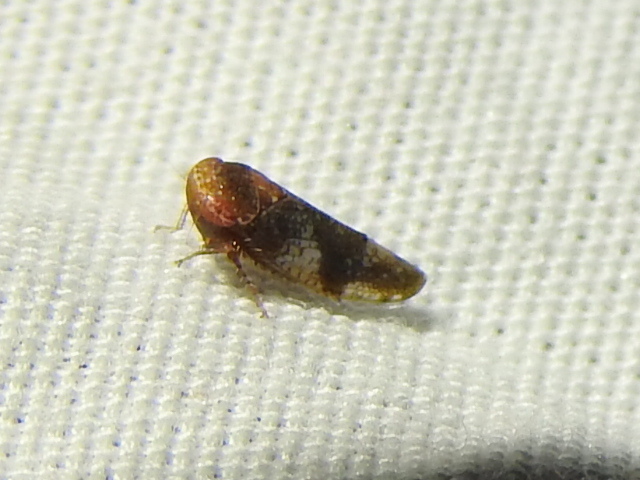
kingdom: Animalia
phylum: Arthropoda
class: Insecta
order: Hemiptera
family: Cicadellidae
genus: Norvellina
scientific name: Norvellina helenae
